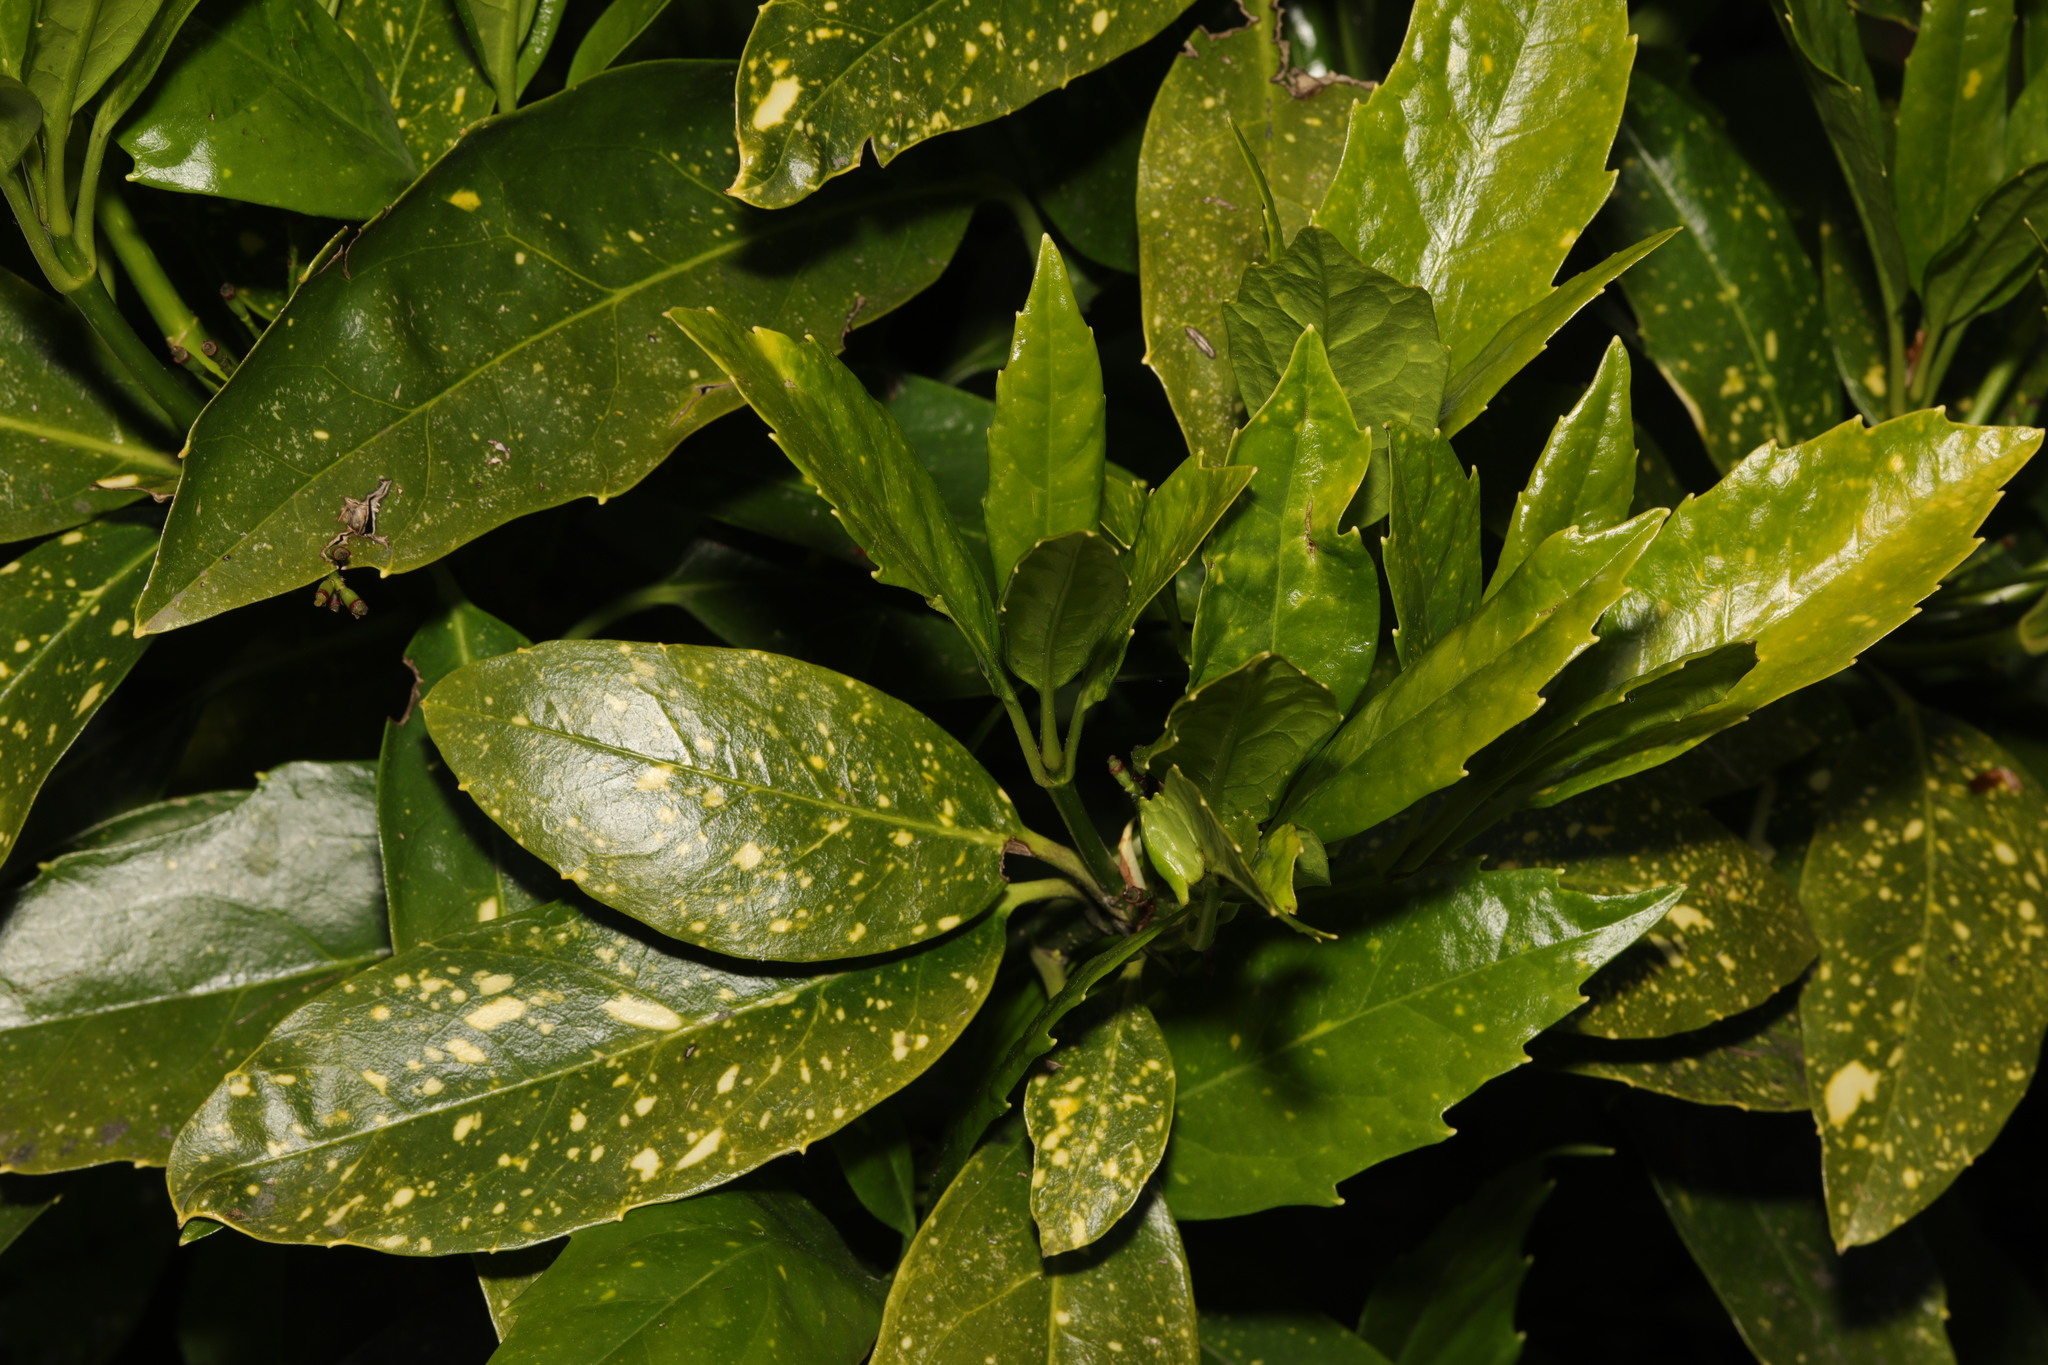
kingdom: Plantae
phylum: Tracheophyta
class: Magnoliopsida
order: Garryales
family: Garryaceae
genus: Aucuba
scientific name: Aucuba japonica
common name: Spotted-laurel
